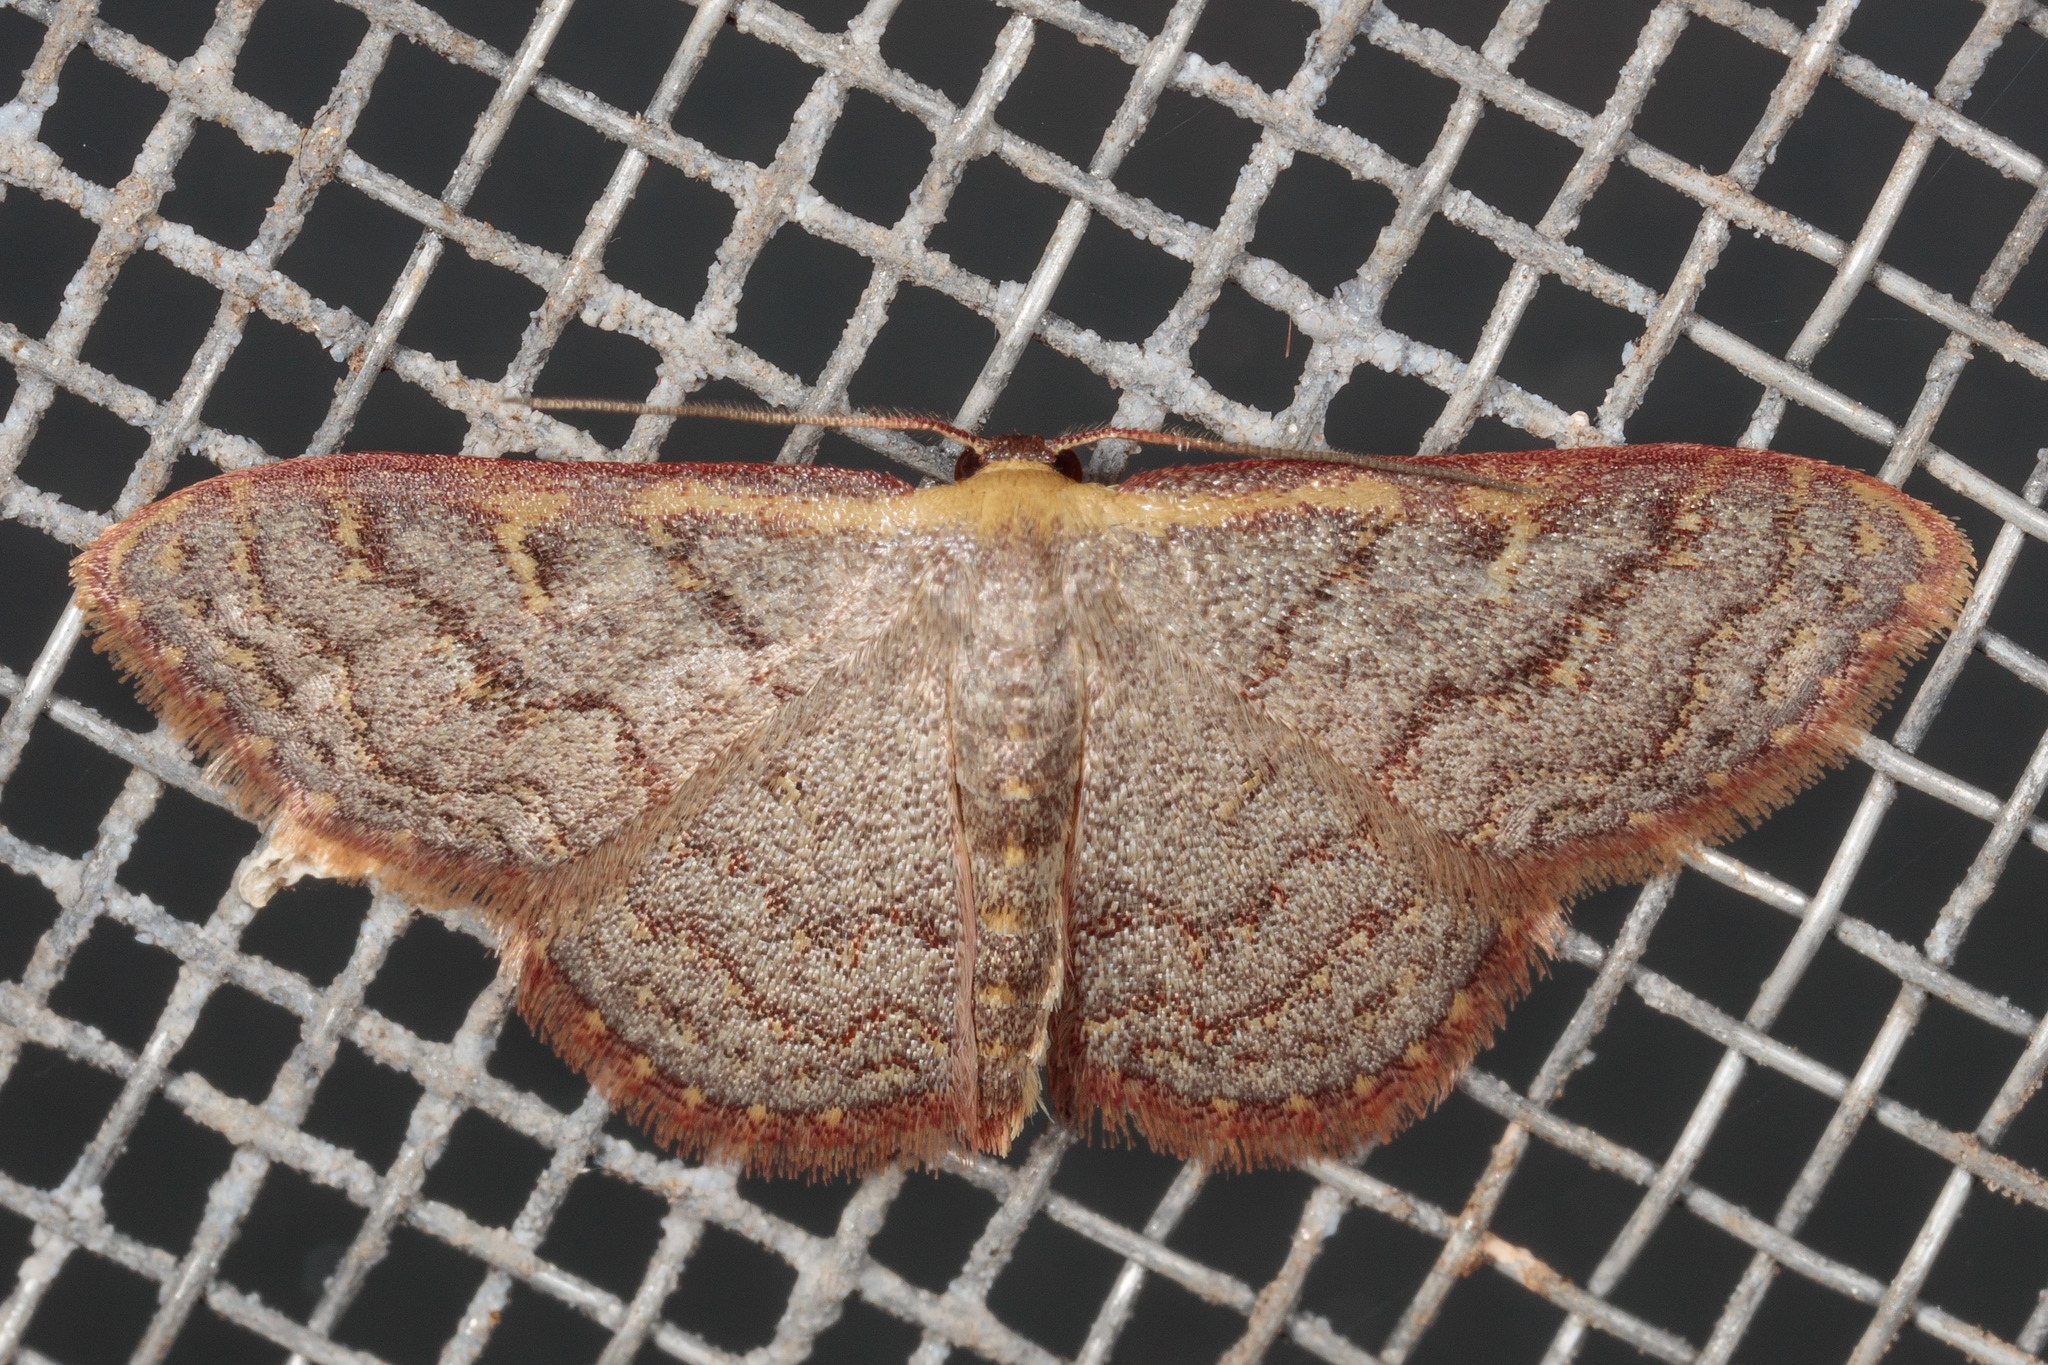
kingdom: Animalia
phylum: Arthropoda
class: Insecta
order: Lepidoptera
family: Geometridae
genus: Leptostales
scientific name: Leptostales pannaria
